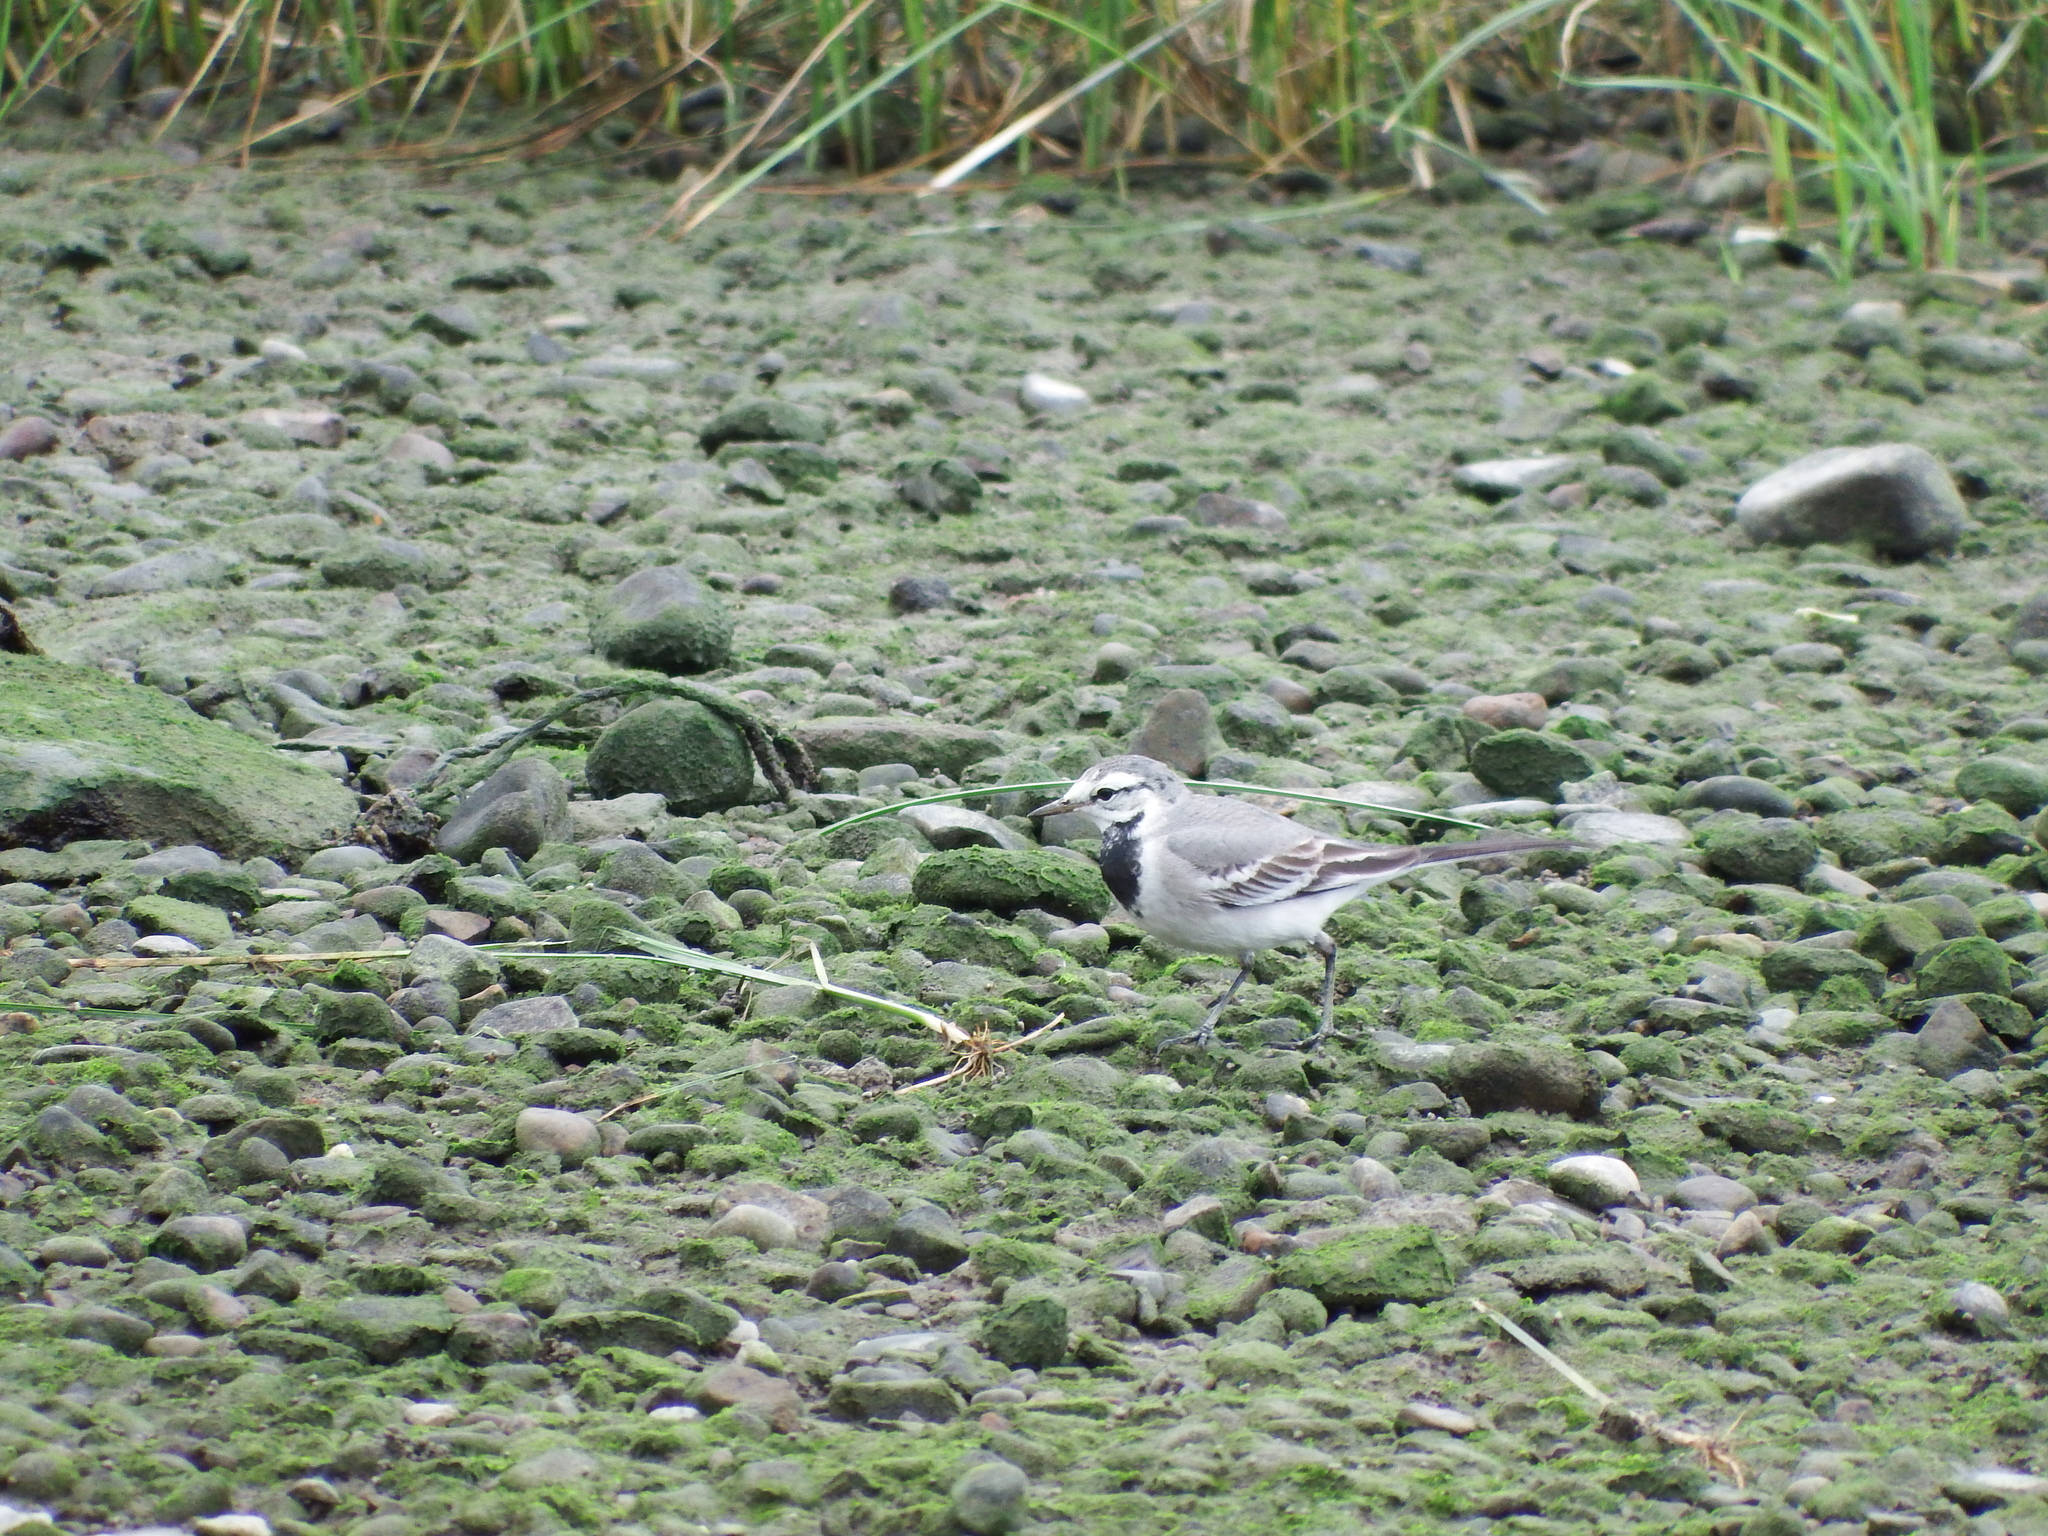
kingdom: Animalia
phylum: Chordata
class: Aves
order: Passeriformes
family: Motacillidae
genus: Motacilla
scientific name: Motacilla alba
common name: White wagtail
